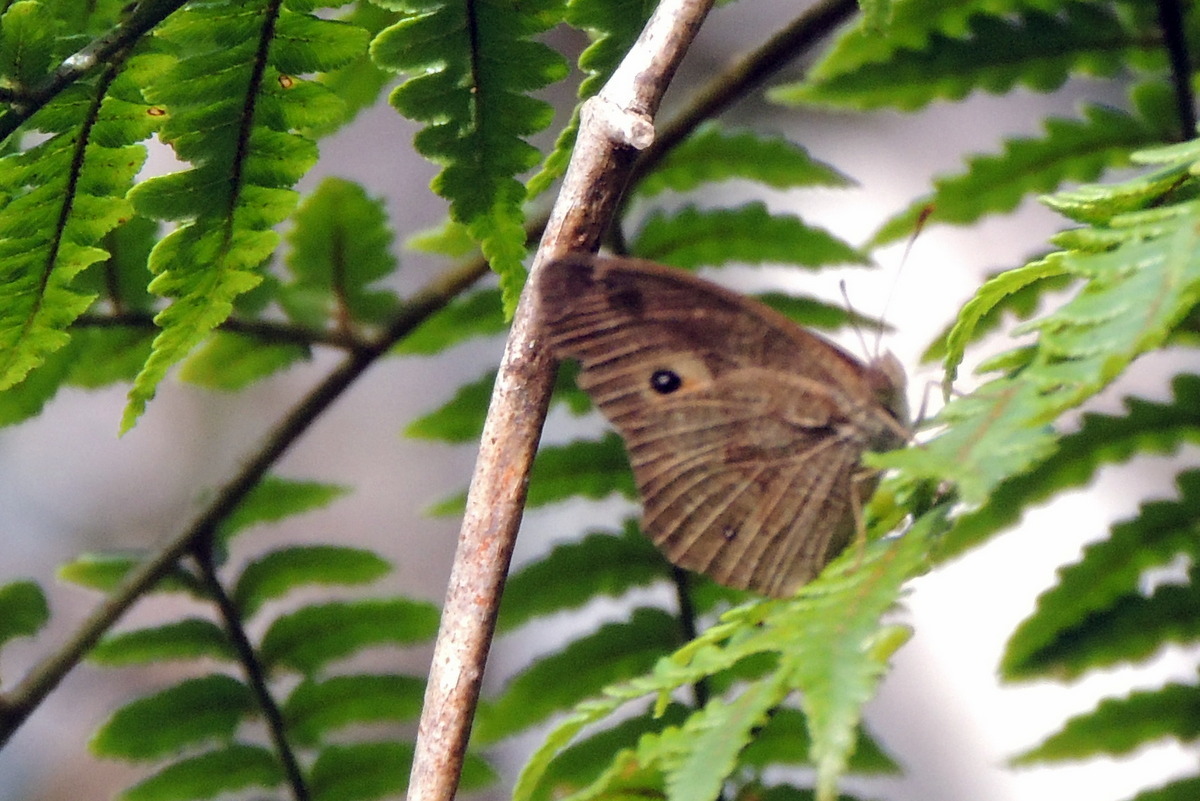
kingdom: Animalia
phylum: Arthropoda
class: Insecta
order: Lepidoptera
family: Nymphalidae
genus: Heteropsis
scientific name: Heteropsis parva
